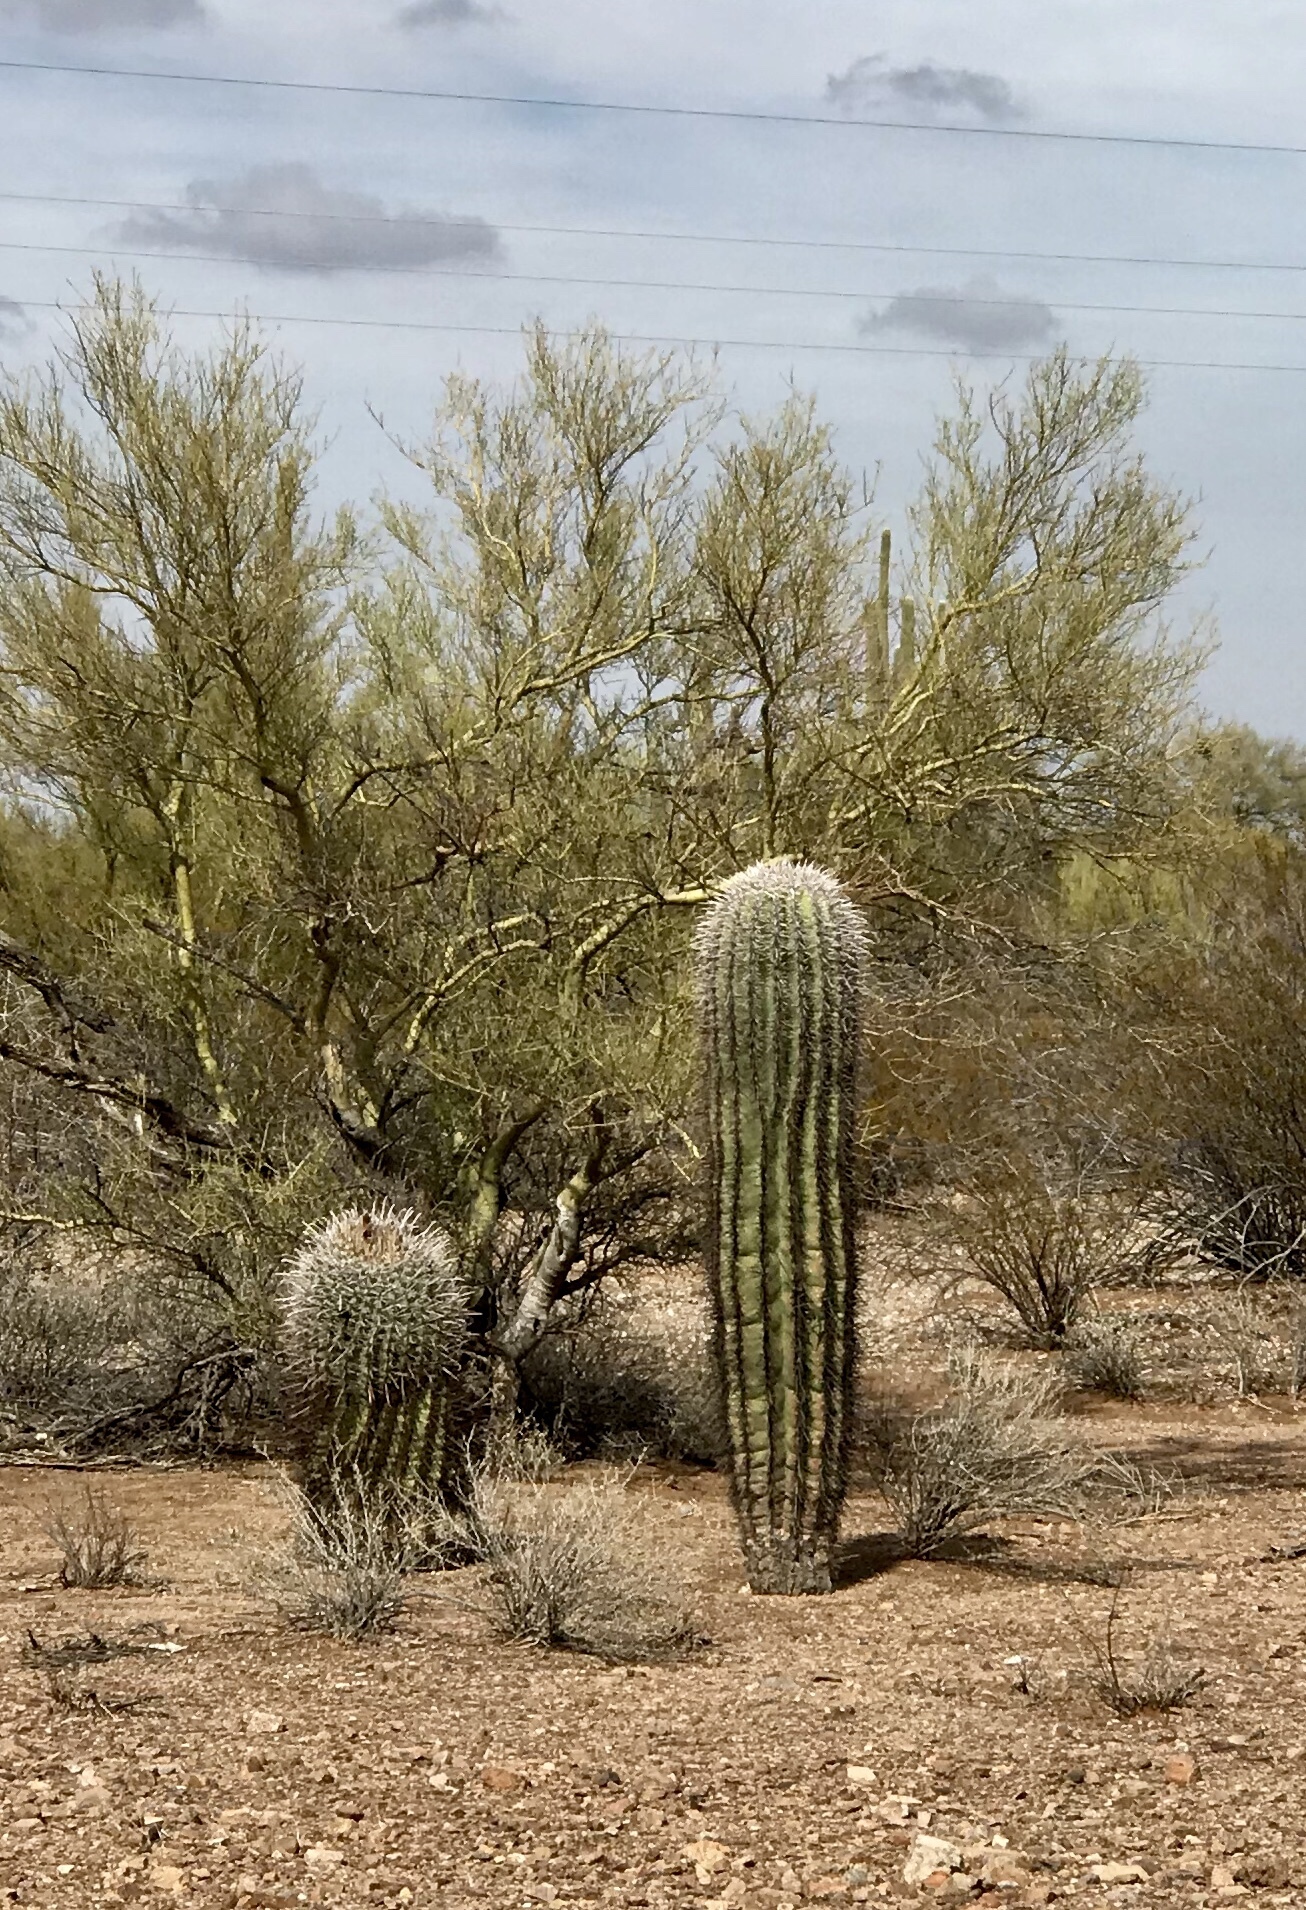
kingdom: Plantae
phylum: Tracheophyta
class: Magnoliopsida
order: Caryophyllales
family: Cactaceae
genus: Carnegiea
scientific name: Carnegiea gigantea
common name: Saguaro
